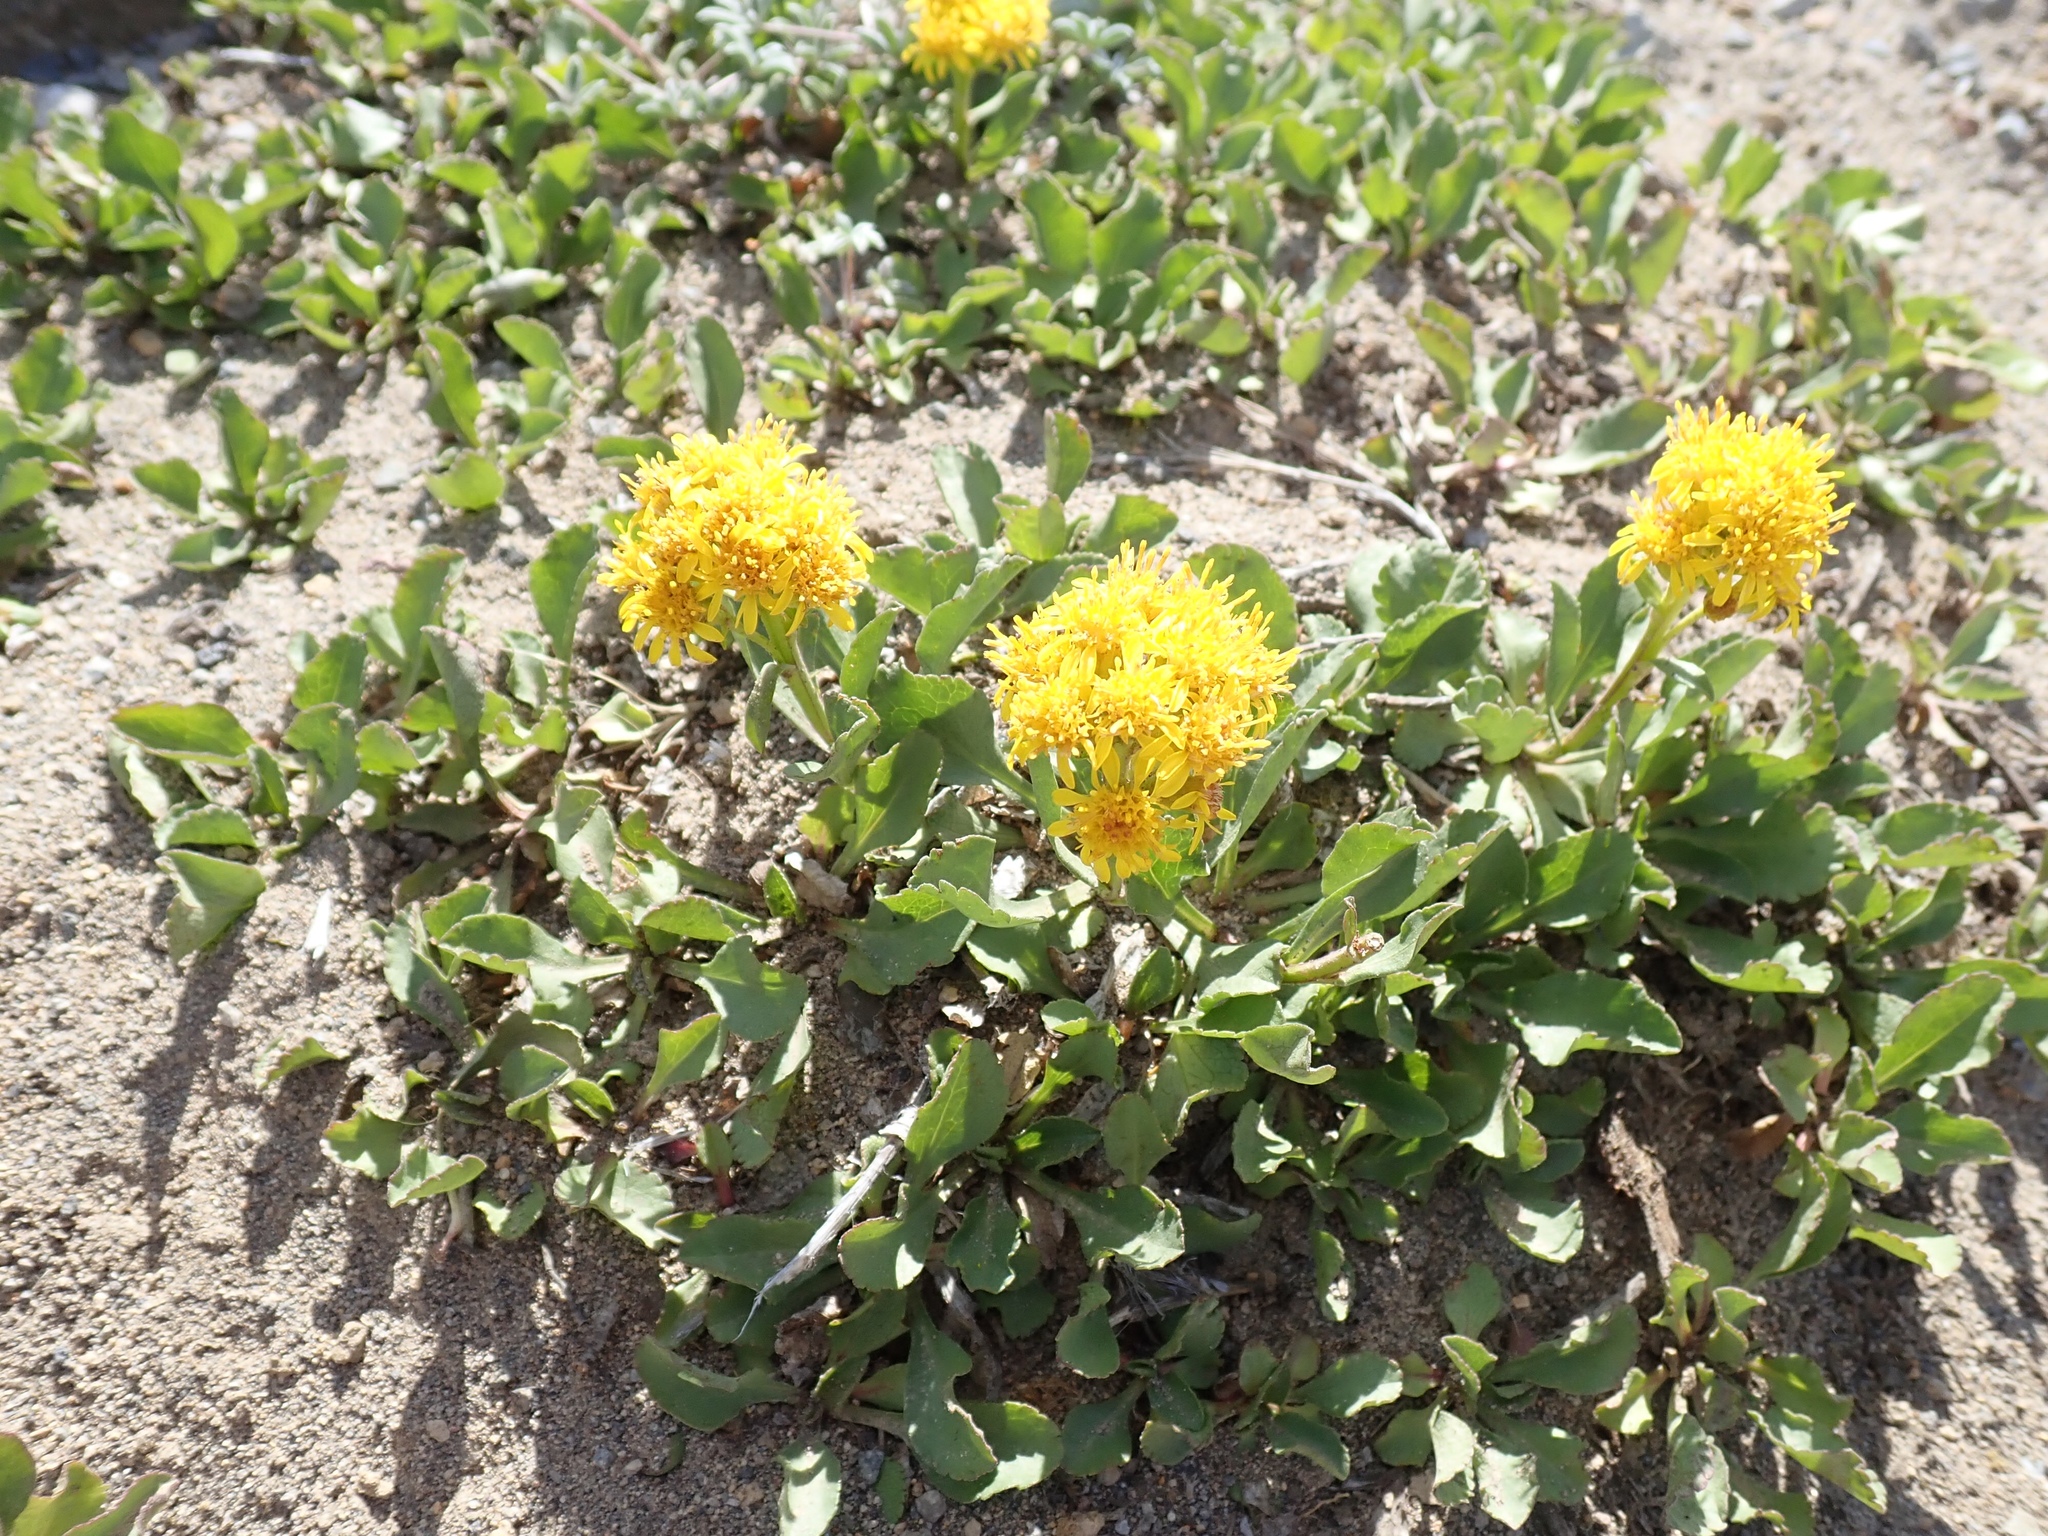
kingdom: Plantae
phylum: Tracheophyta
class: Magnoliopsida
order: Asterales
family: Asteraceae
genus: Solidago
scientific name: Solidago multiradiata
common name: Northern goldenrod
